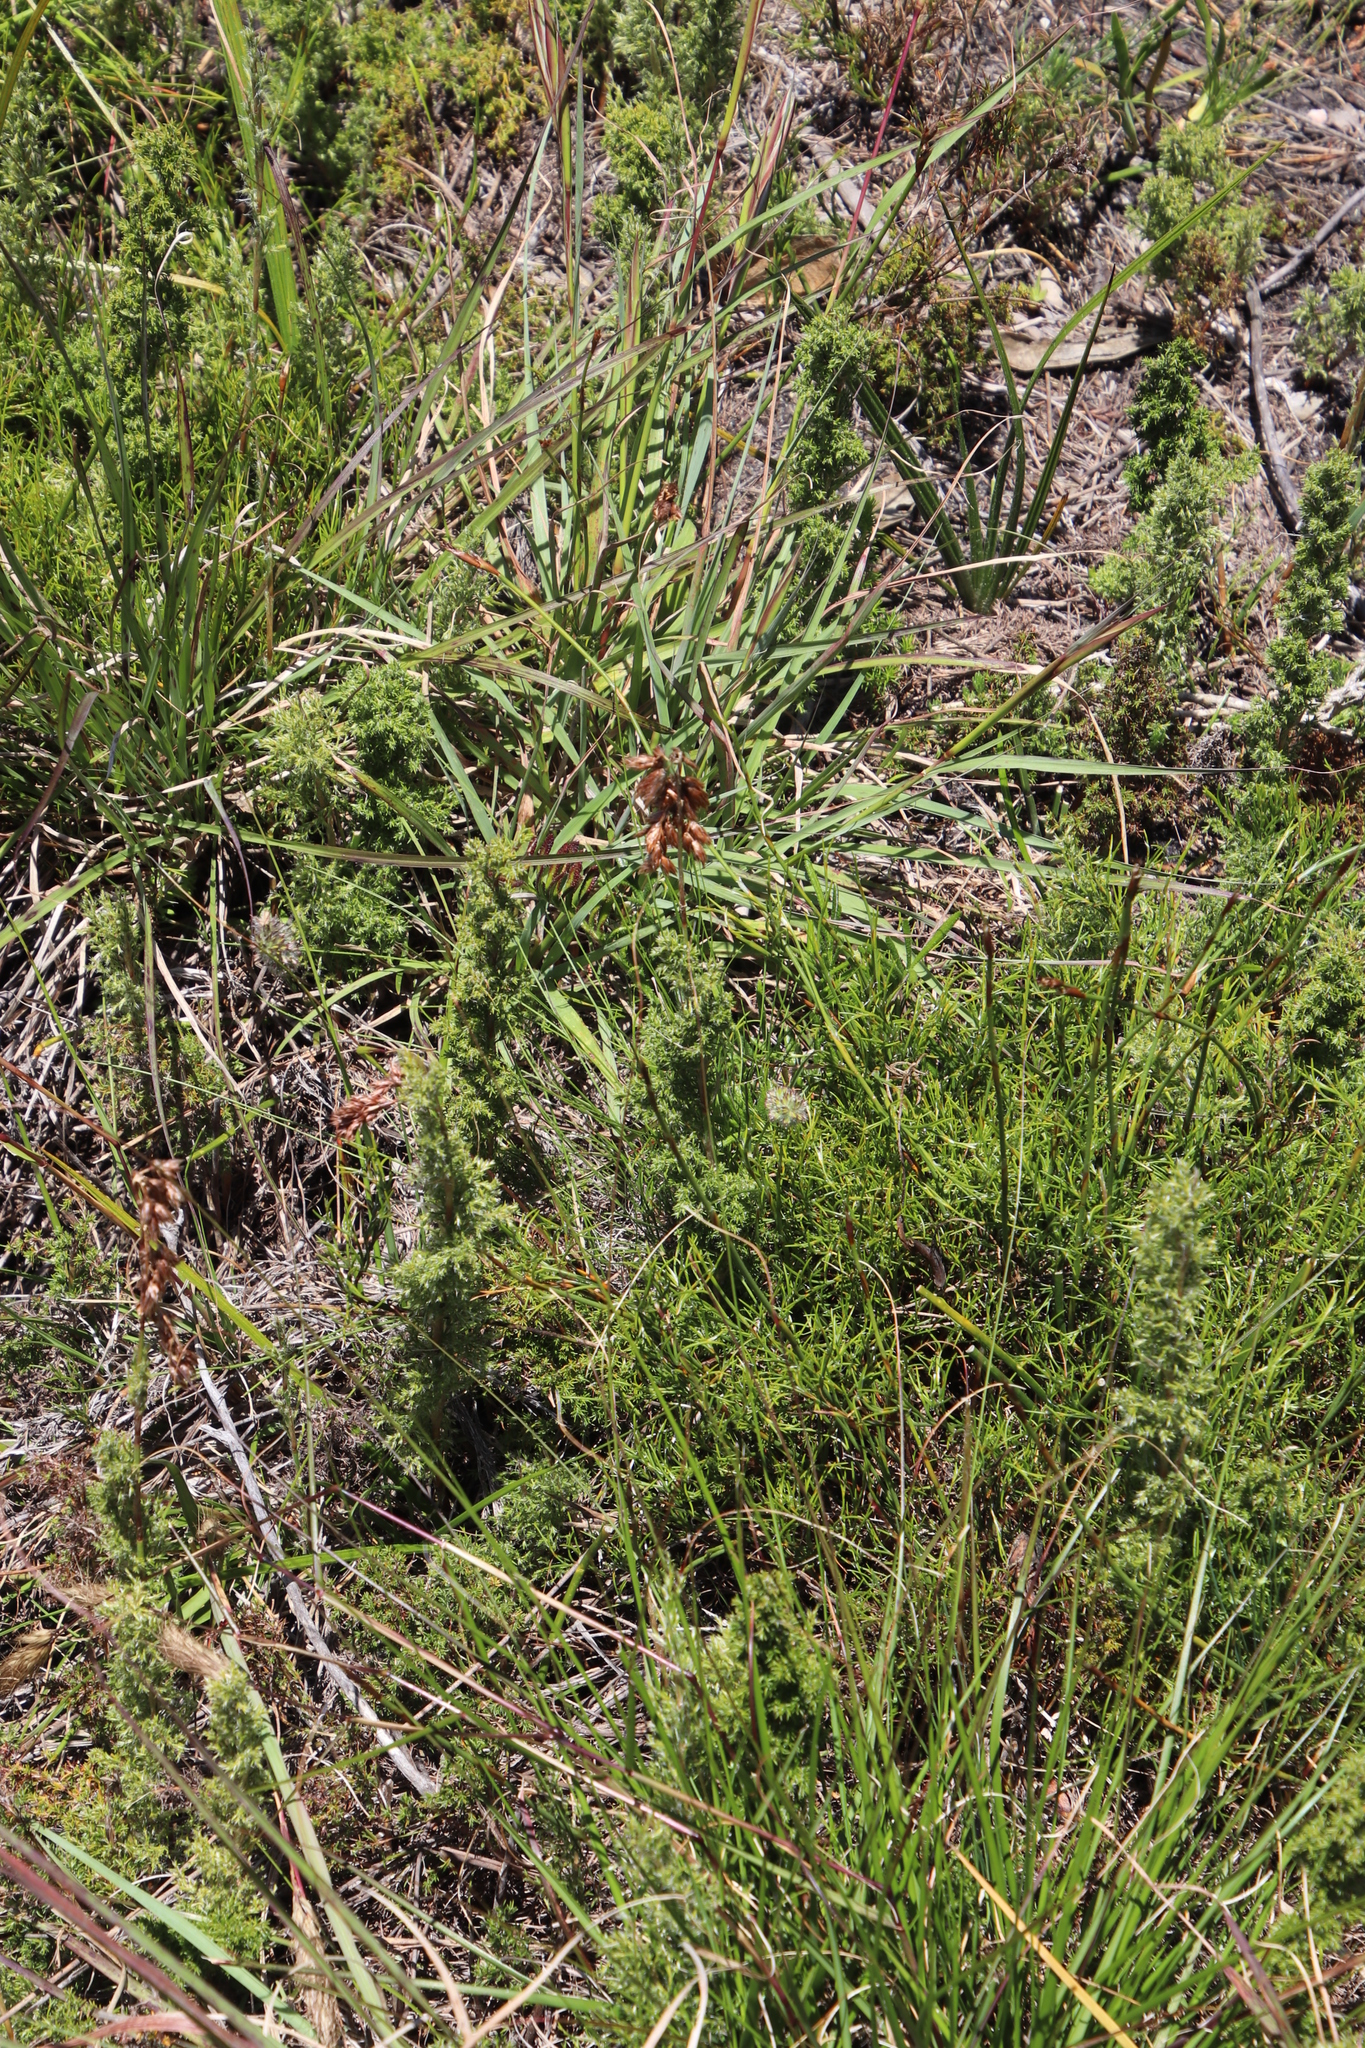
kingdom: Plantae
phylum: Tracheophyta
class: Liliopsida
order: Poales
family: Restionaceae
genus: Thamnochortus
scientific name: Thamnochortus fruticosus
